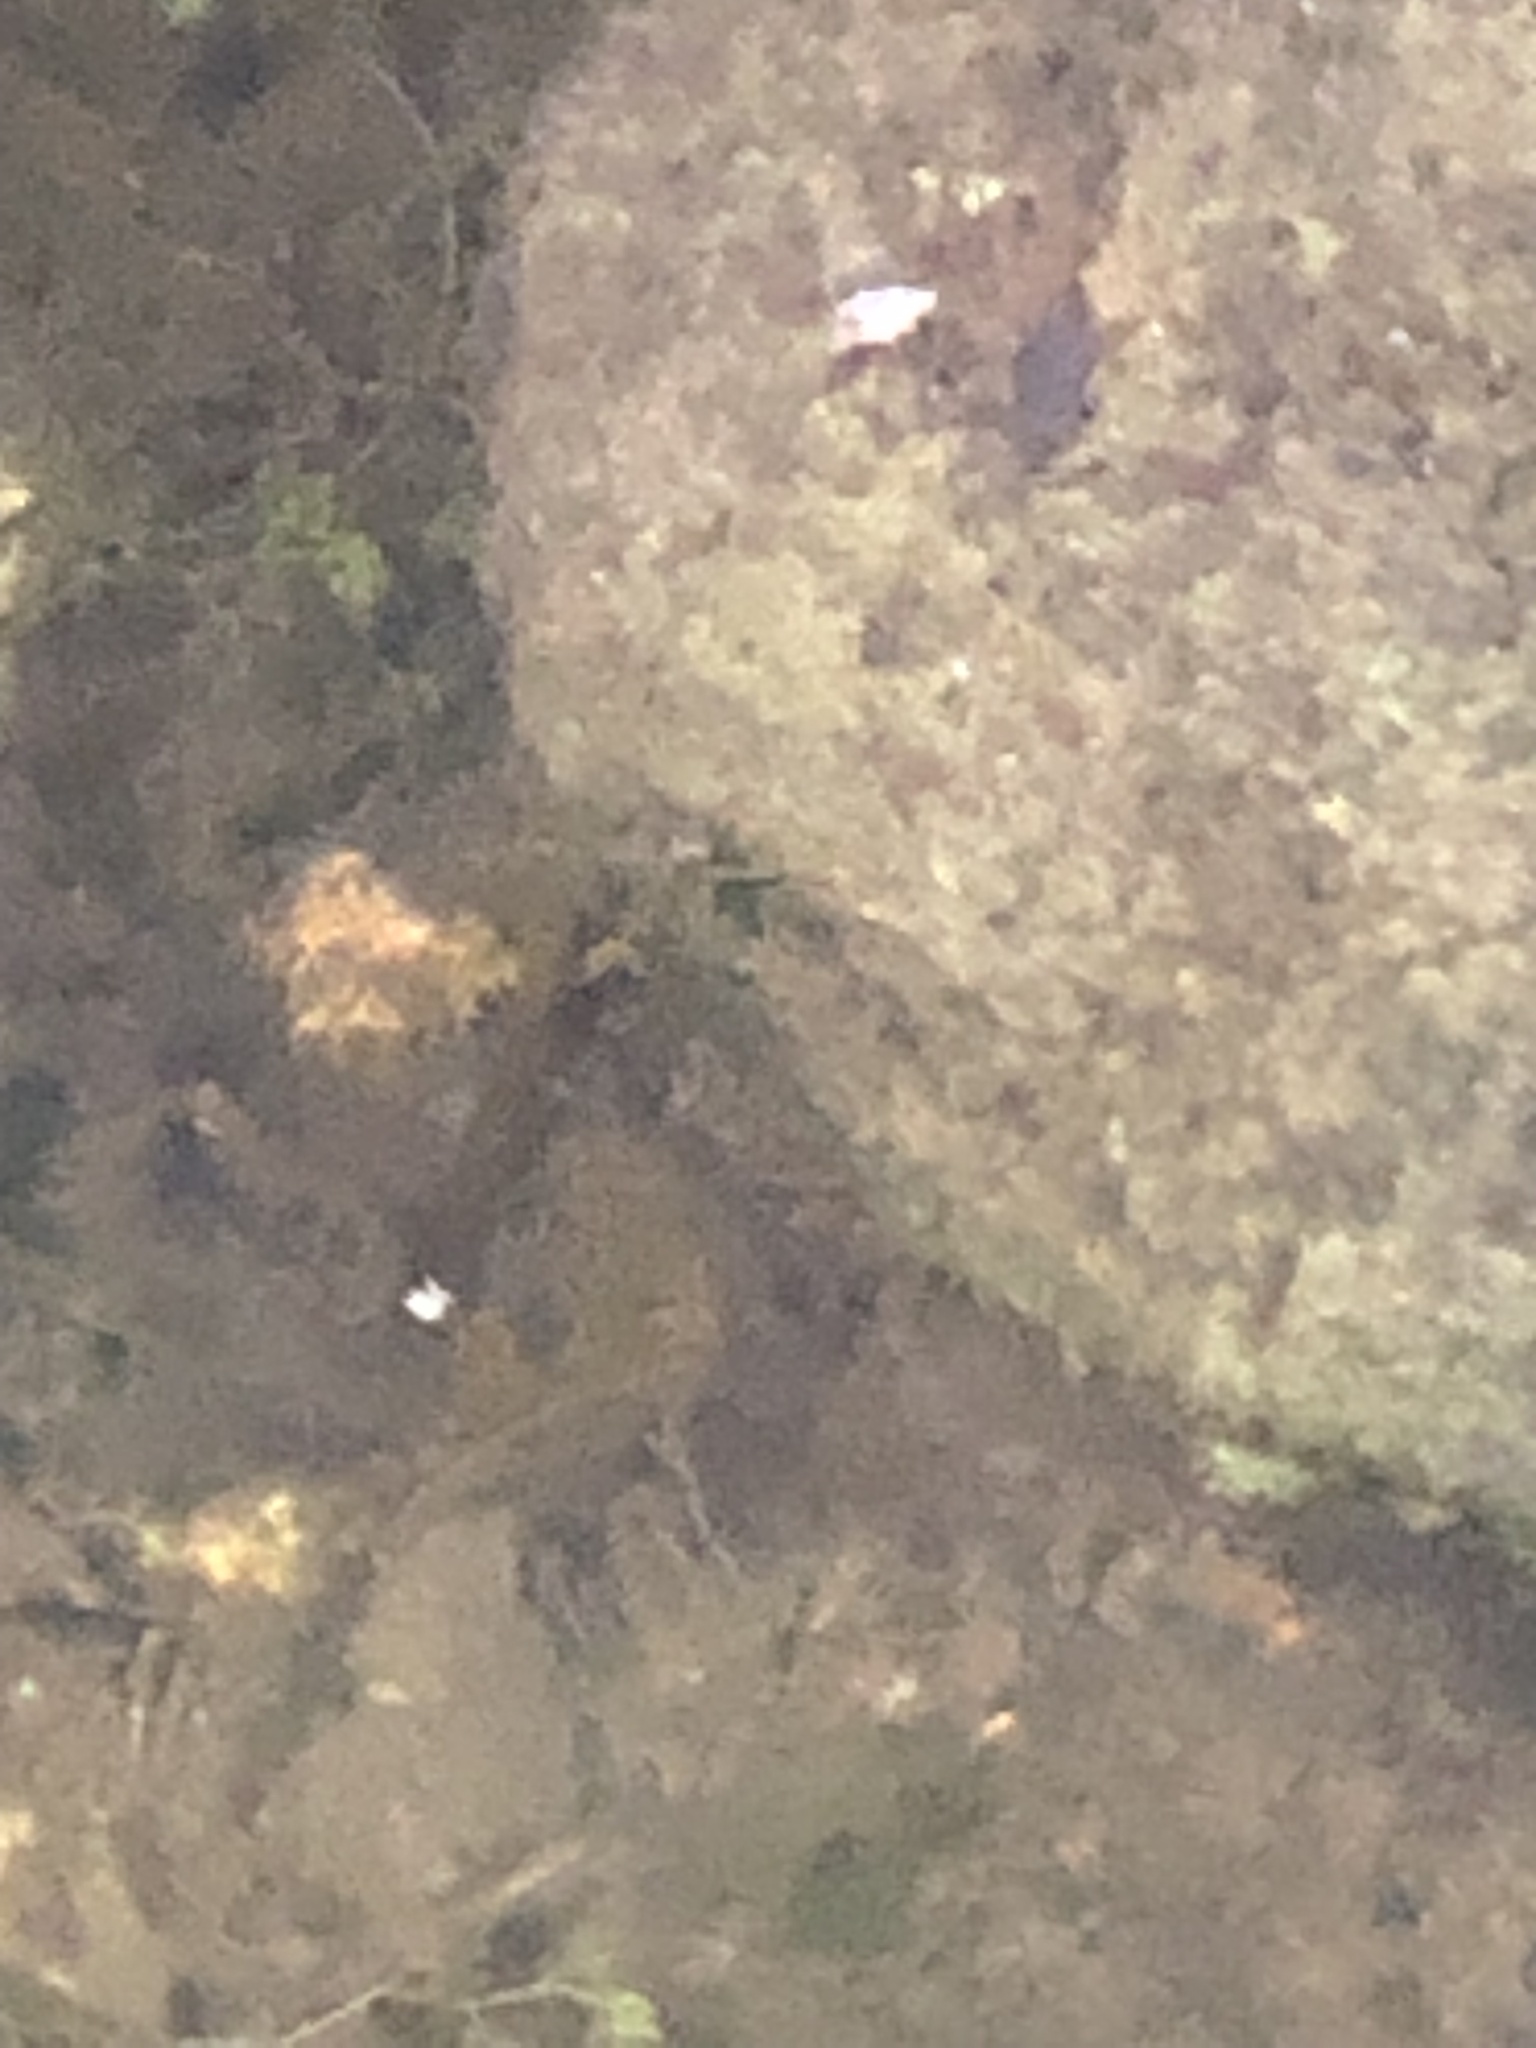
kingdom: Animalia
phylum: Chordata
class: Amphibia
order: Caudata
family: Salamandridae
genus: Notophthalmus
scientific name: Notophthalmus viridescens
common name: Eastern newt
